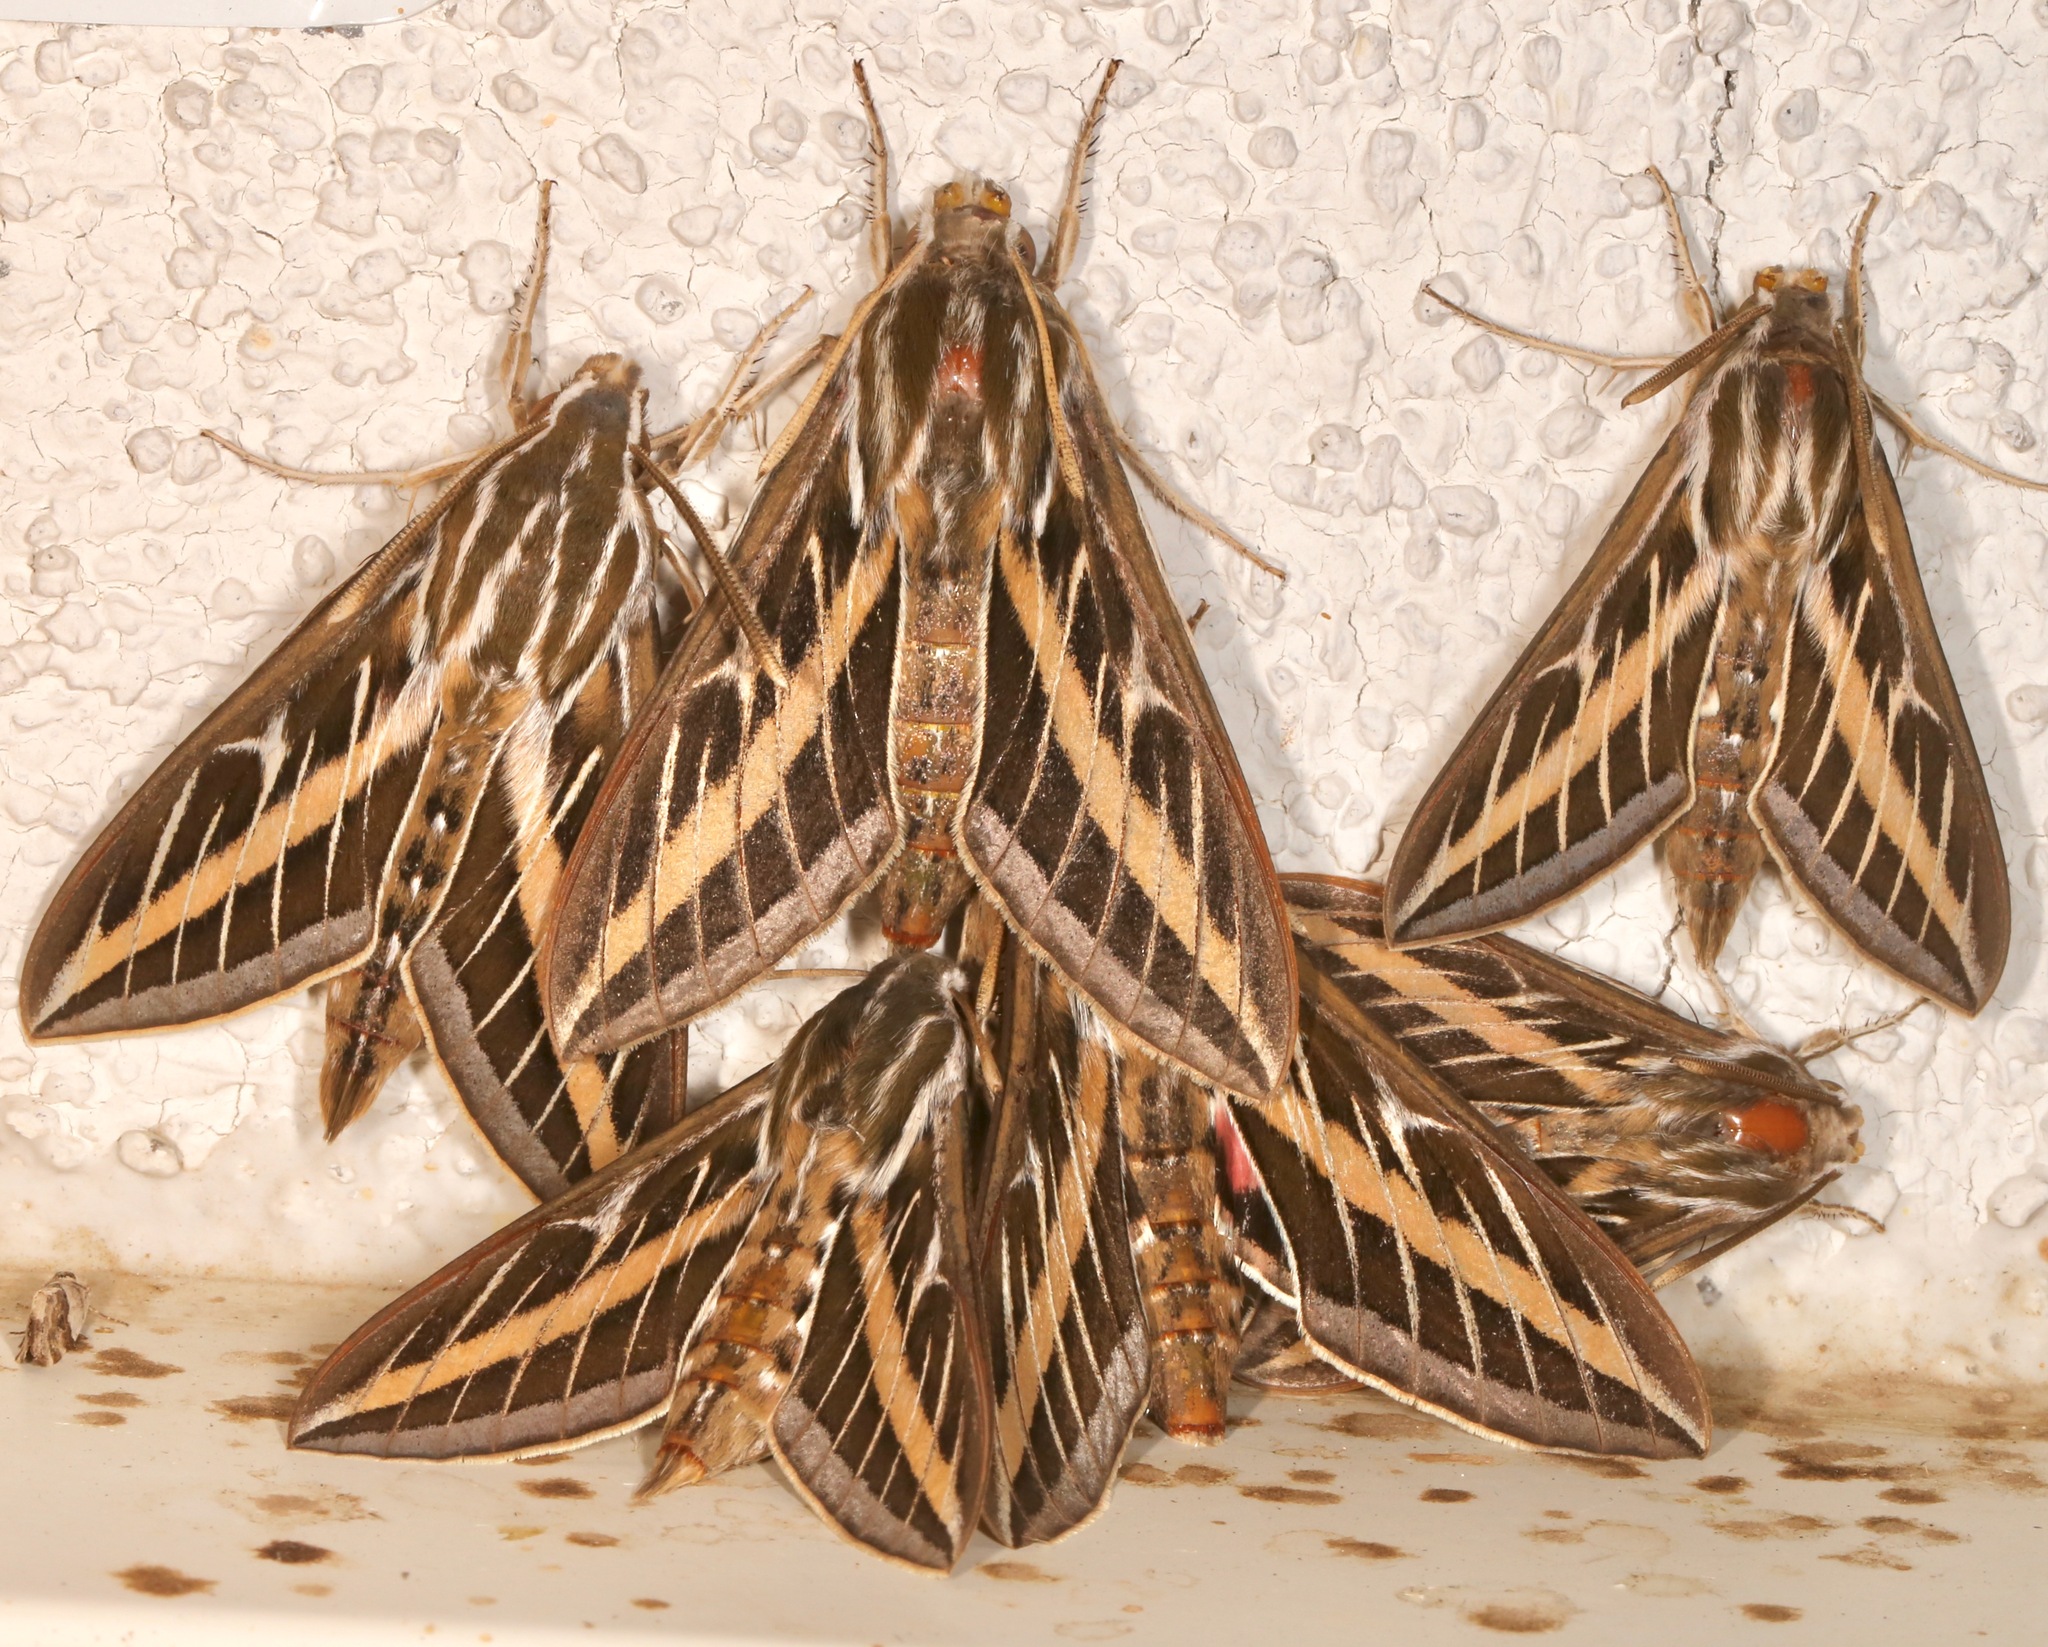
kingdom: Animalia
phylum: Arthropoda
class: Insecta
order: Lepidoptera
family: Sphingidae
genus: Hyles
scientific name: Hyles lineata
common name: White-lined sphinx
